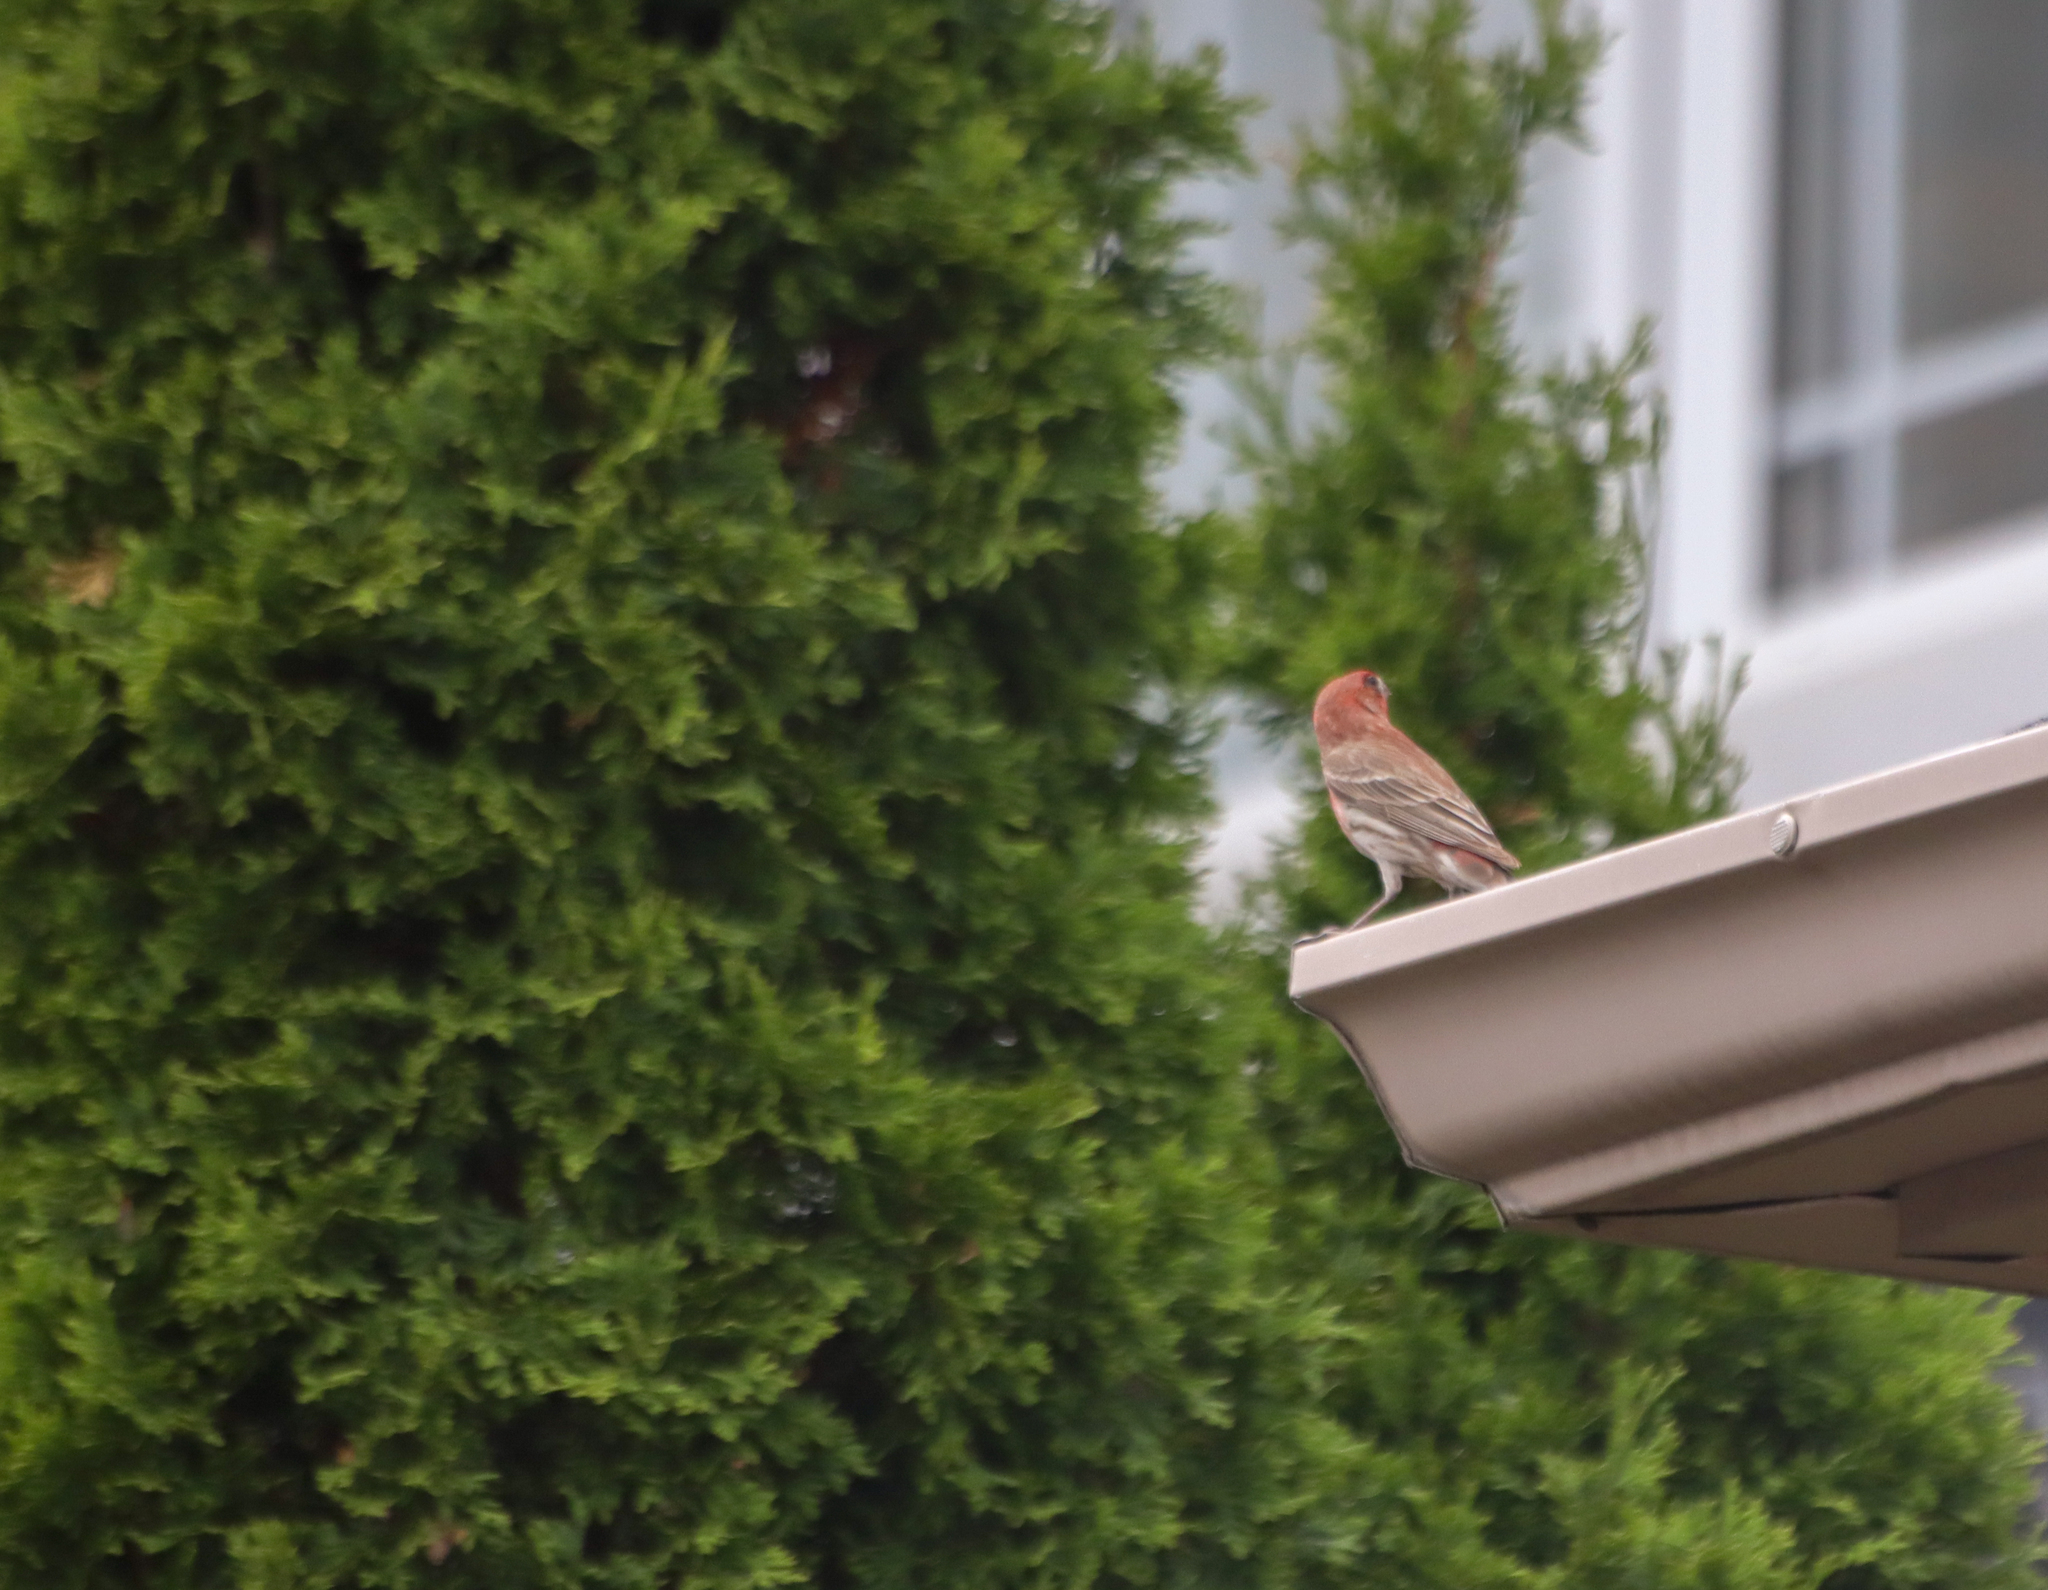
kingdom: Animalia
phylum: Chordata
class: Aves
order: Passeriformes
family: Fringillidae
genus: Haemorhous
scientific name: Haemorhous mexicanus
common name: House finch
